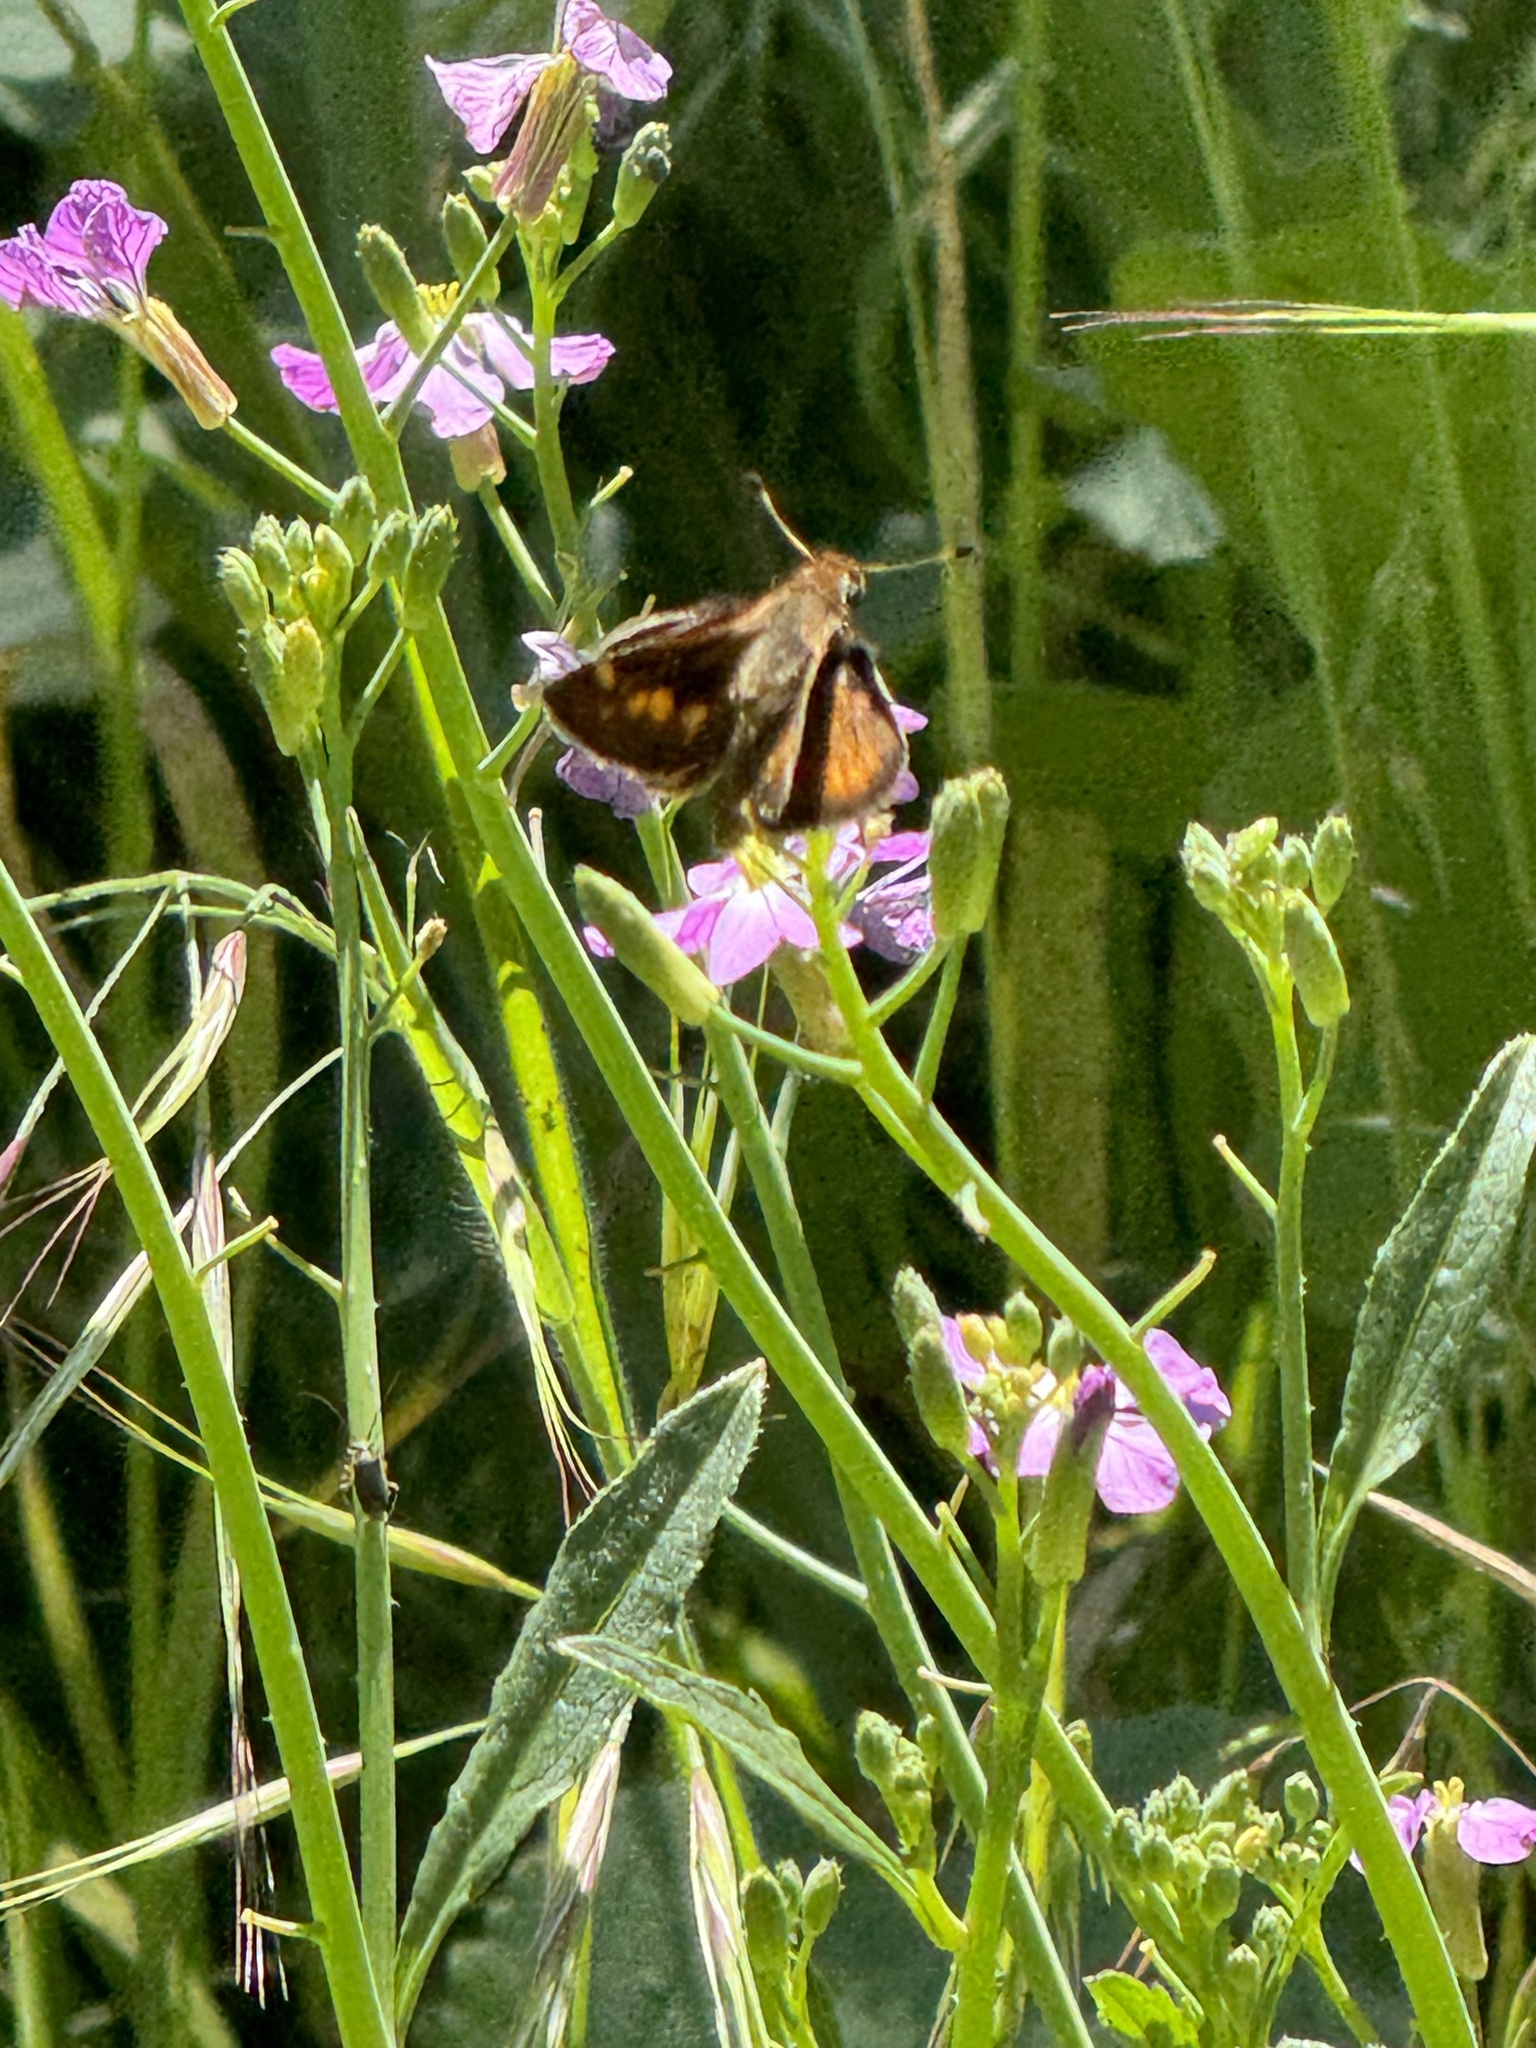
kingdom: Animalia
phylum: Arthropoda
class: Insecta
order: Lepidoptera
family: Hesperiidae
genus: Lon
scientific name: Lon melane
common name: Umber skipper
